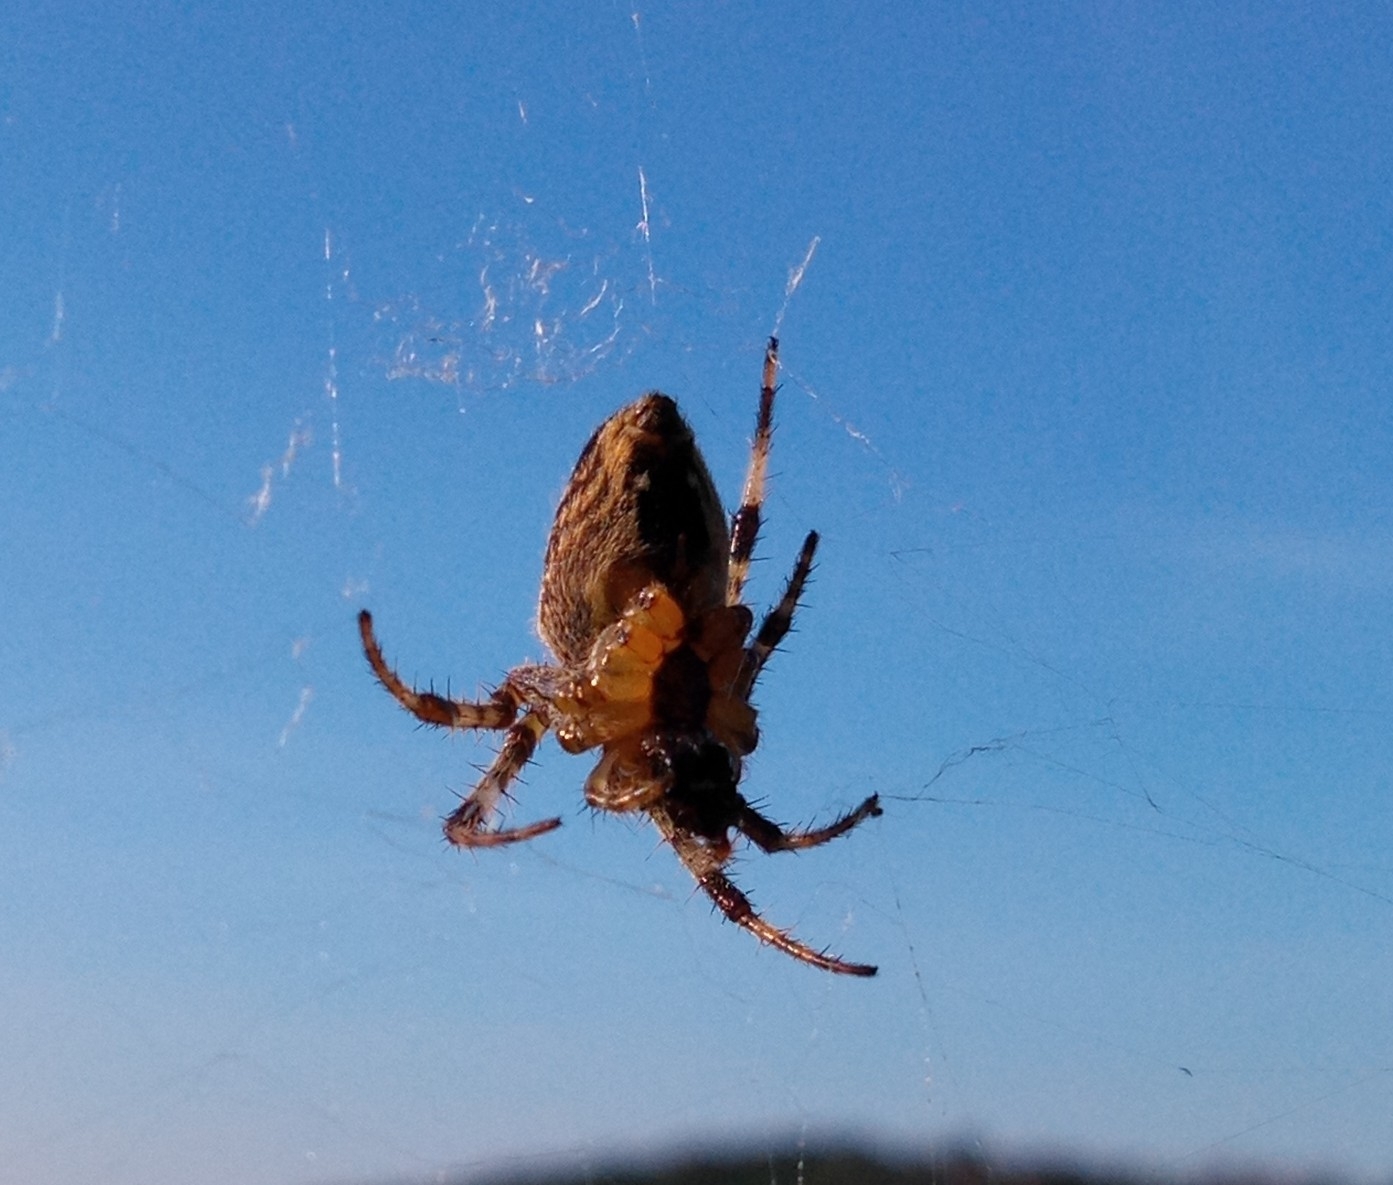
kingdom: Animalia
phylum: Arthropoda
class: Arachnida
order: Araneae
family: Araneidae
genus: Araneus
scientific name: Araneus diadematus
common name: Cross orbweaver
